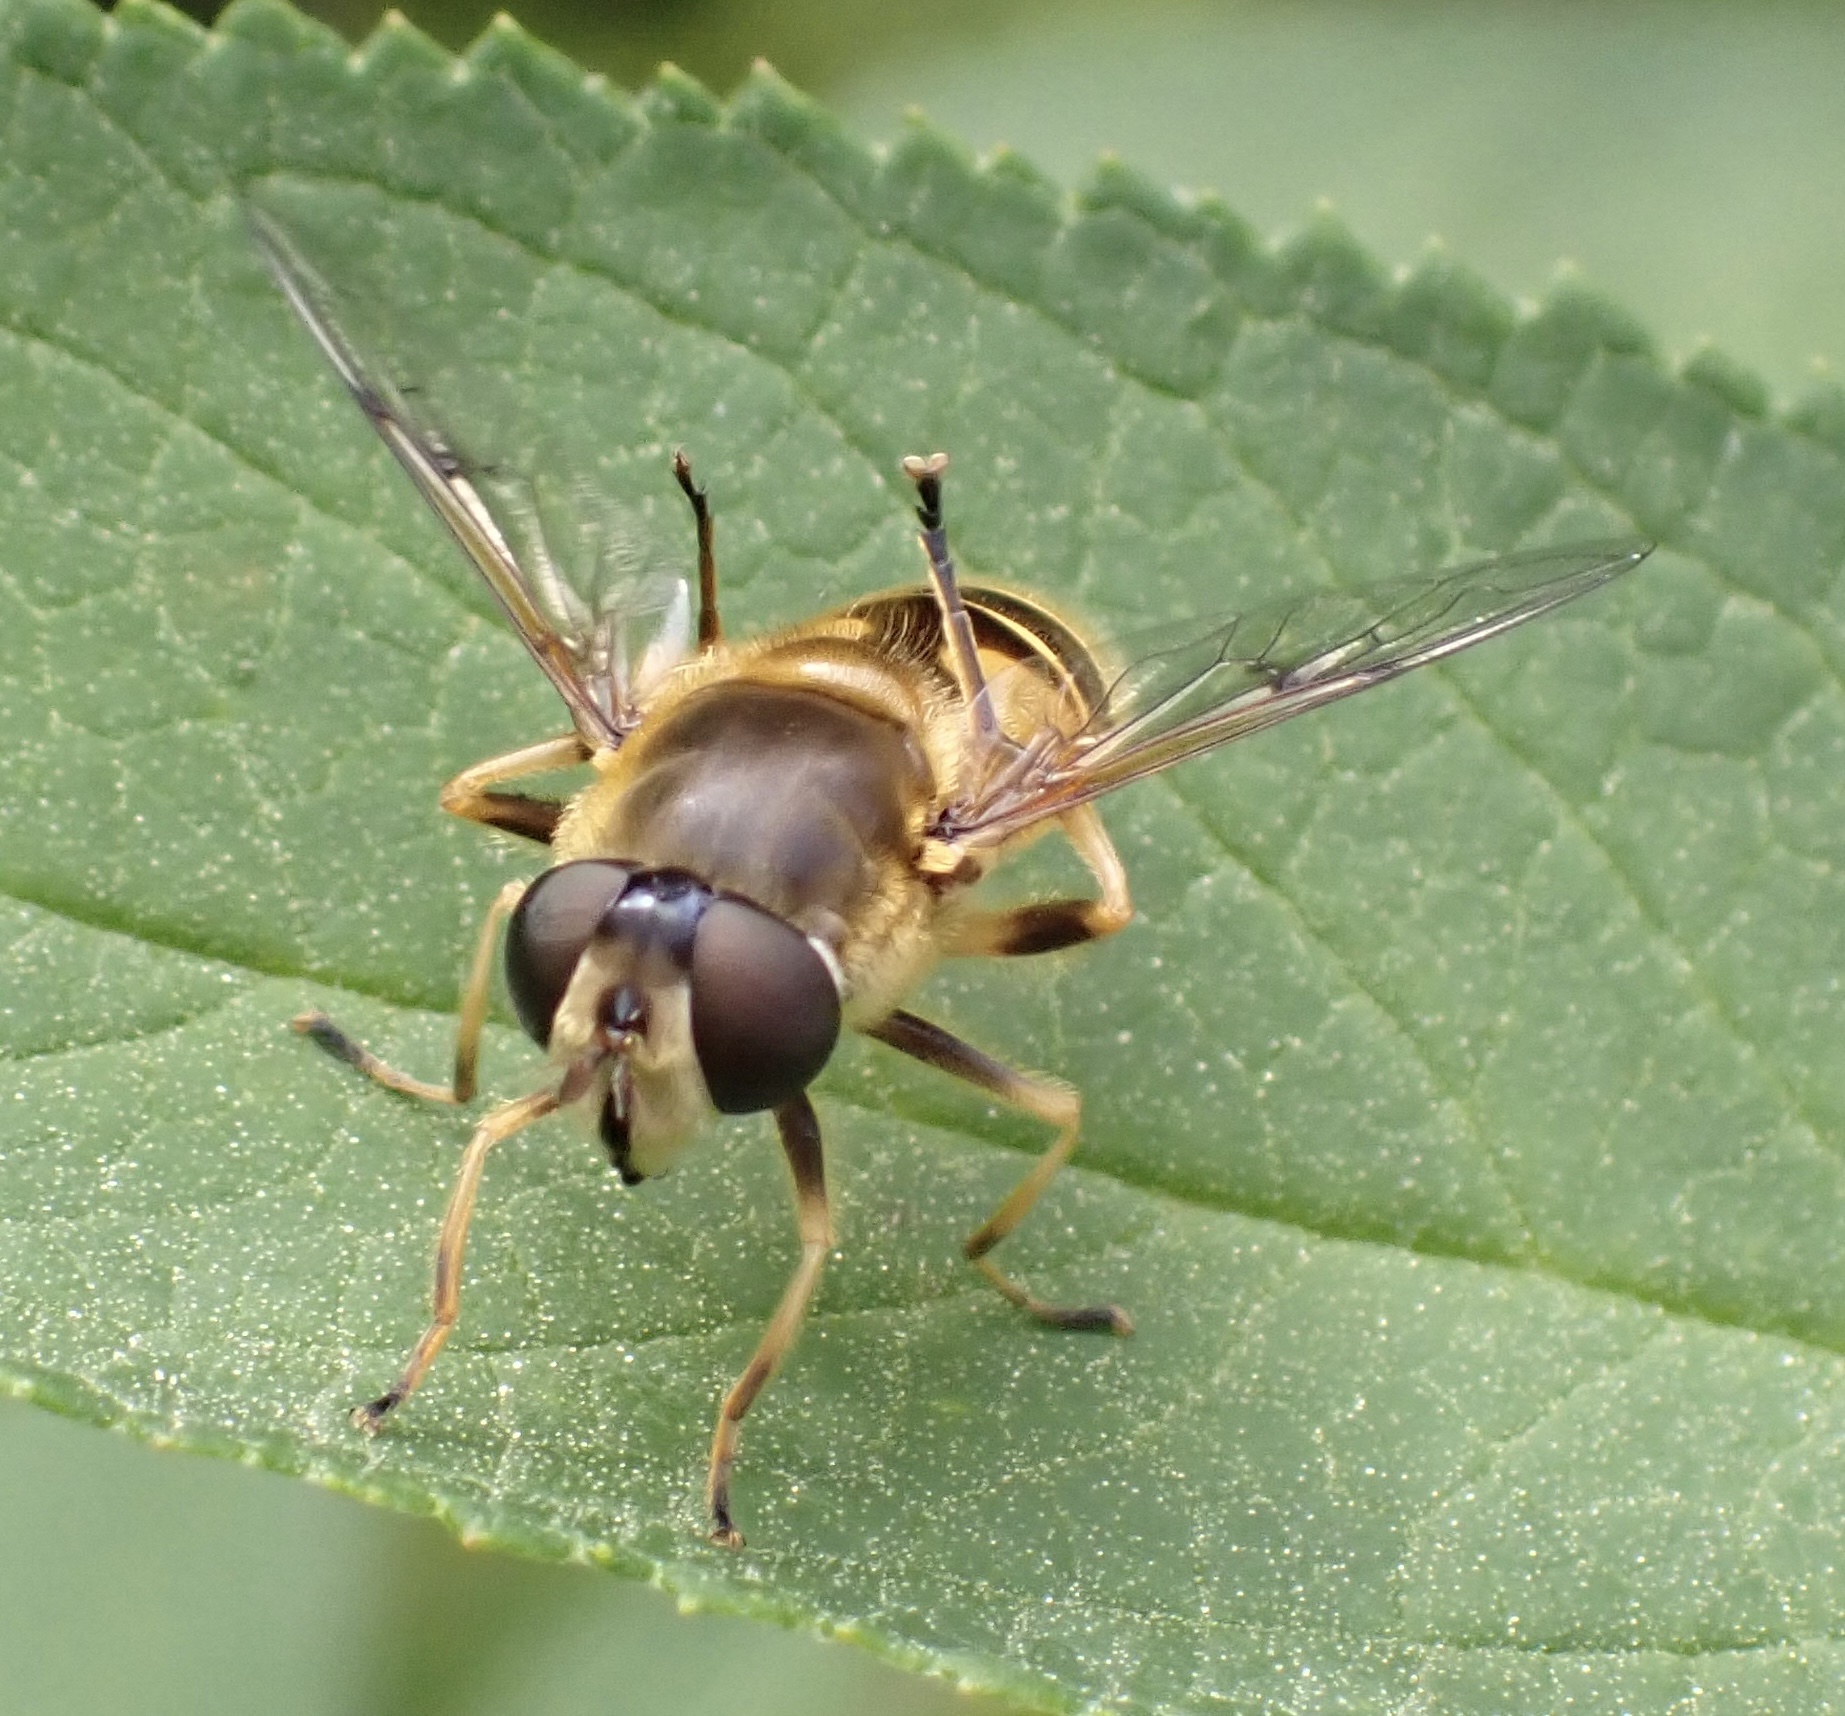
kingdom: Animalia
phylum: Arthropoda
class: Insecta
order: Diptera
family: Syrphidae
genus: Cheilosia
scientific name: Cheilosia morio
